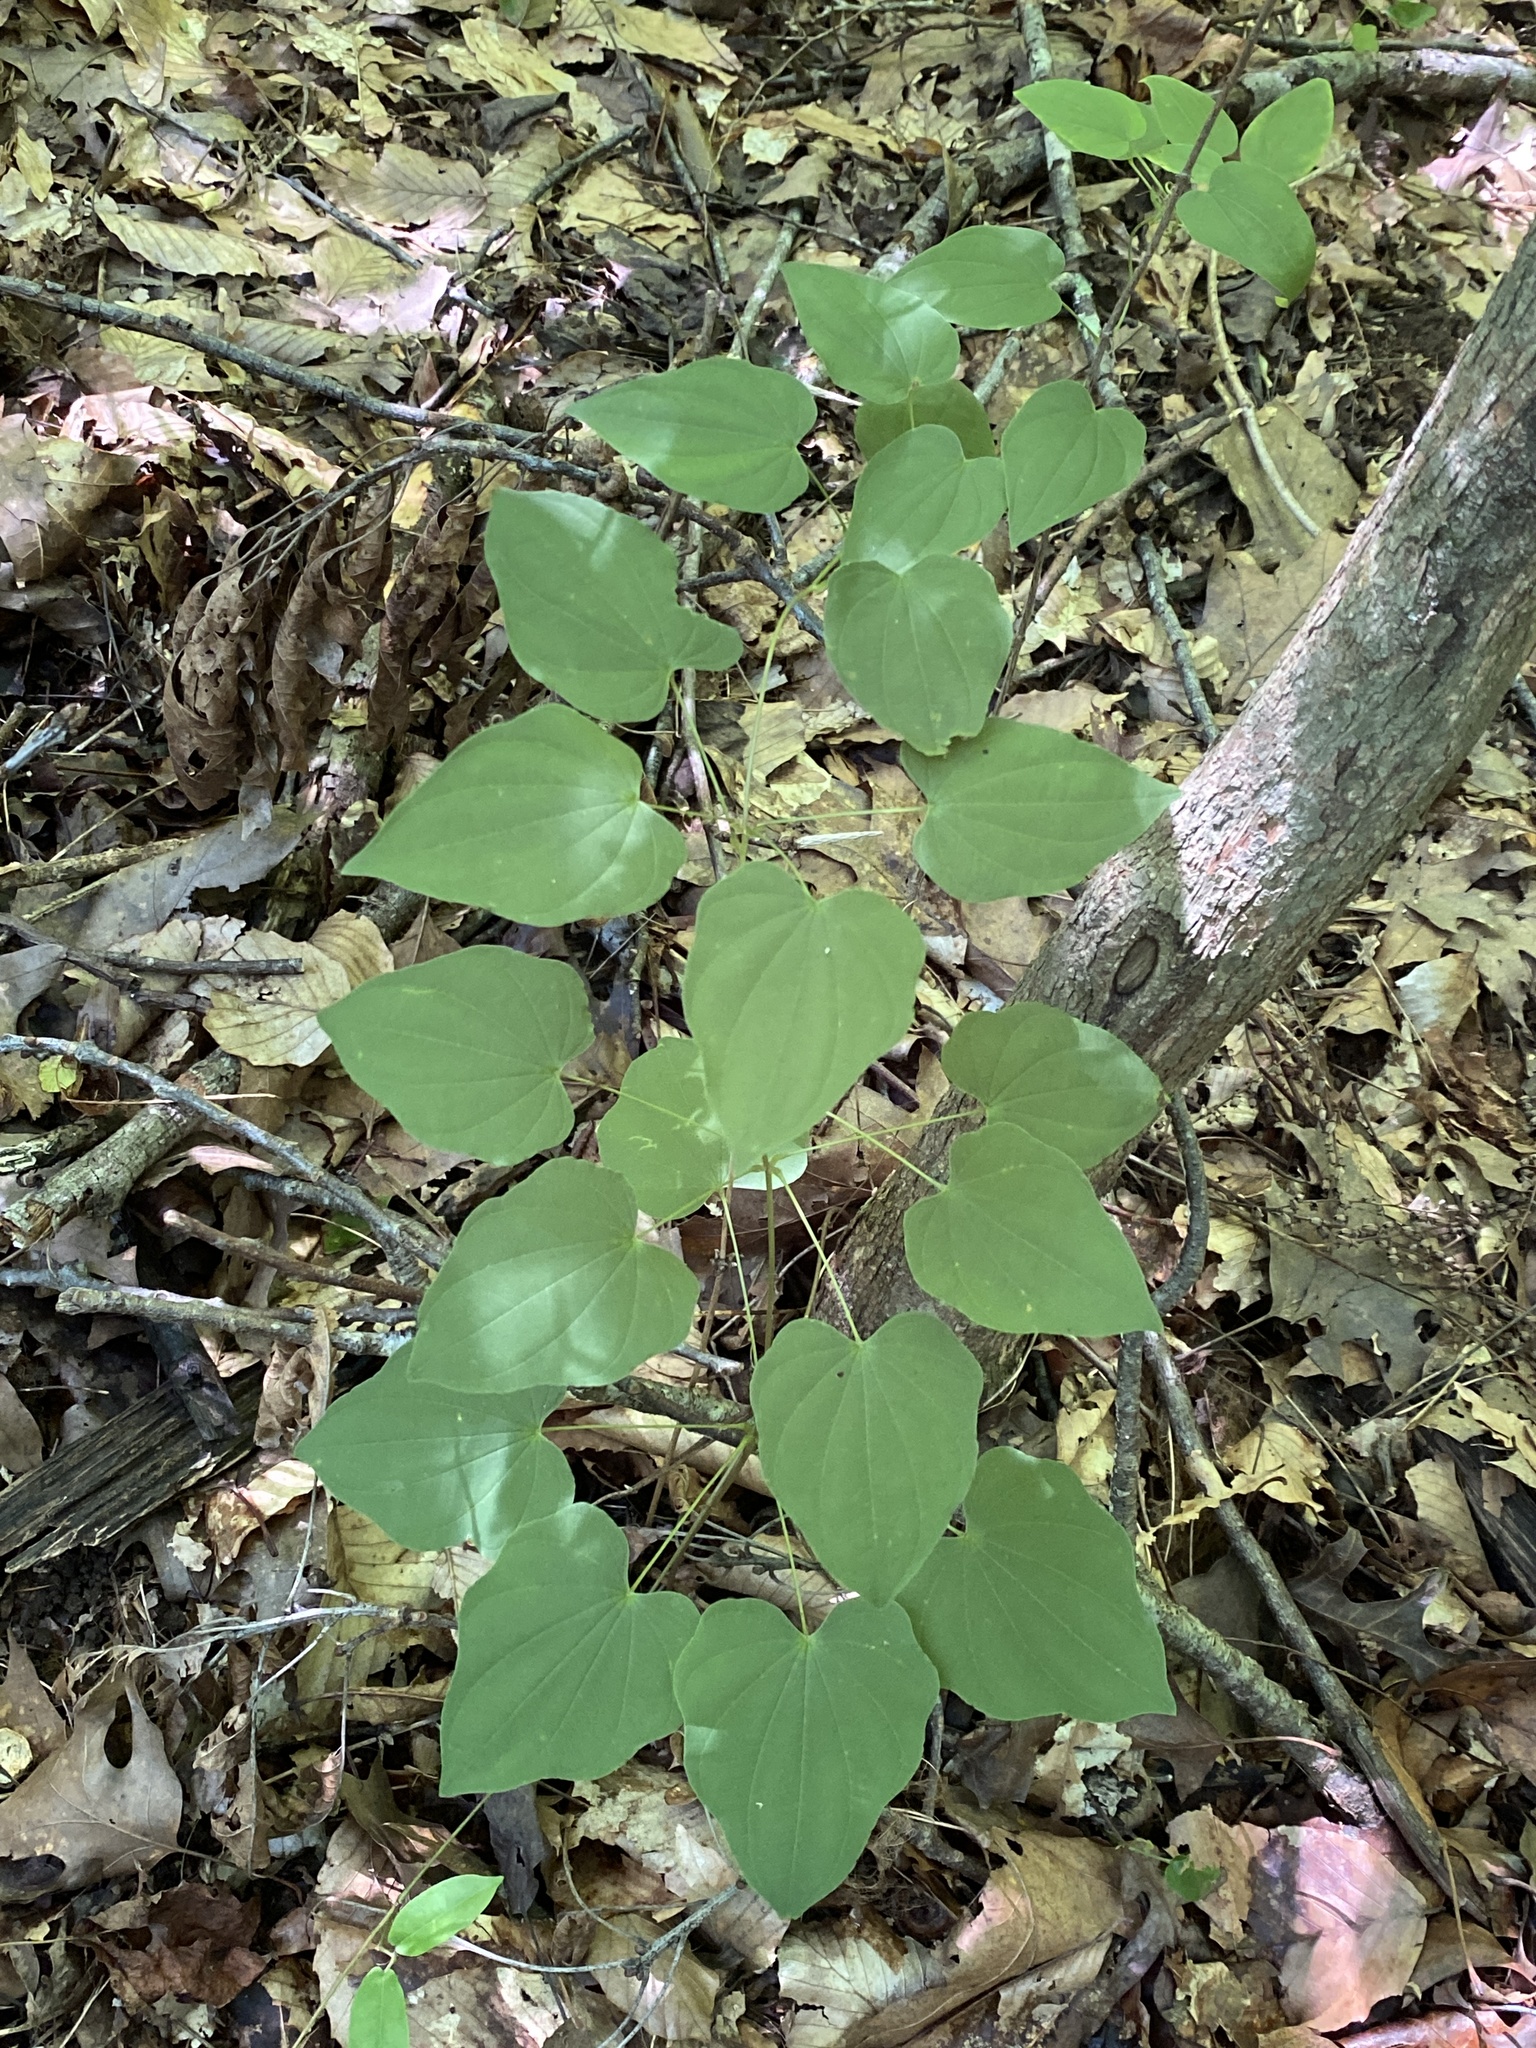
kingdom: Plantae
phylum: Tracheophyta
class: Liliopsida
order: Dioscoreales
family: Dioscoreaceae
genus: Dioscorea
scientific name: Dioscorea villosa
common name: Wild yam
